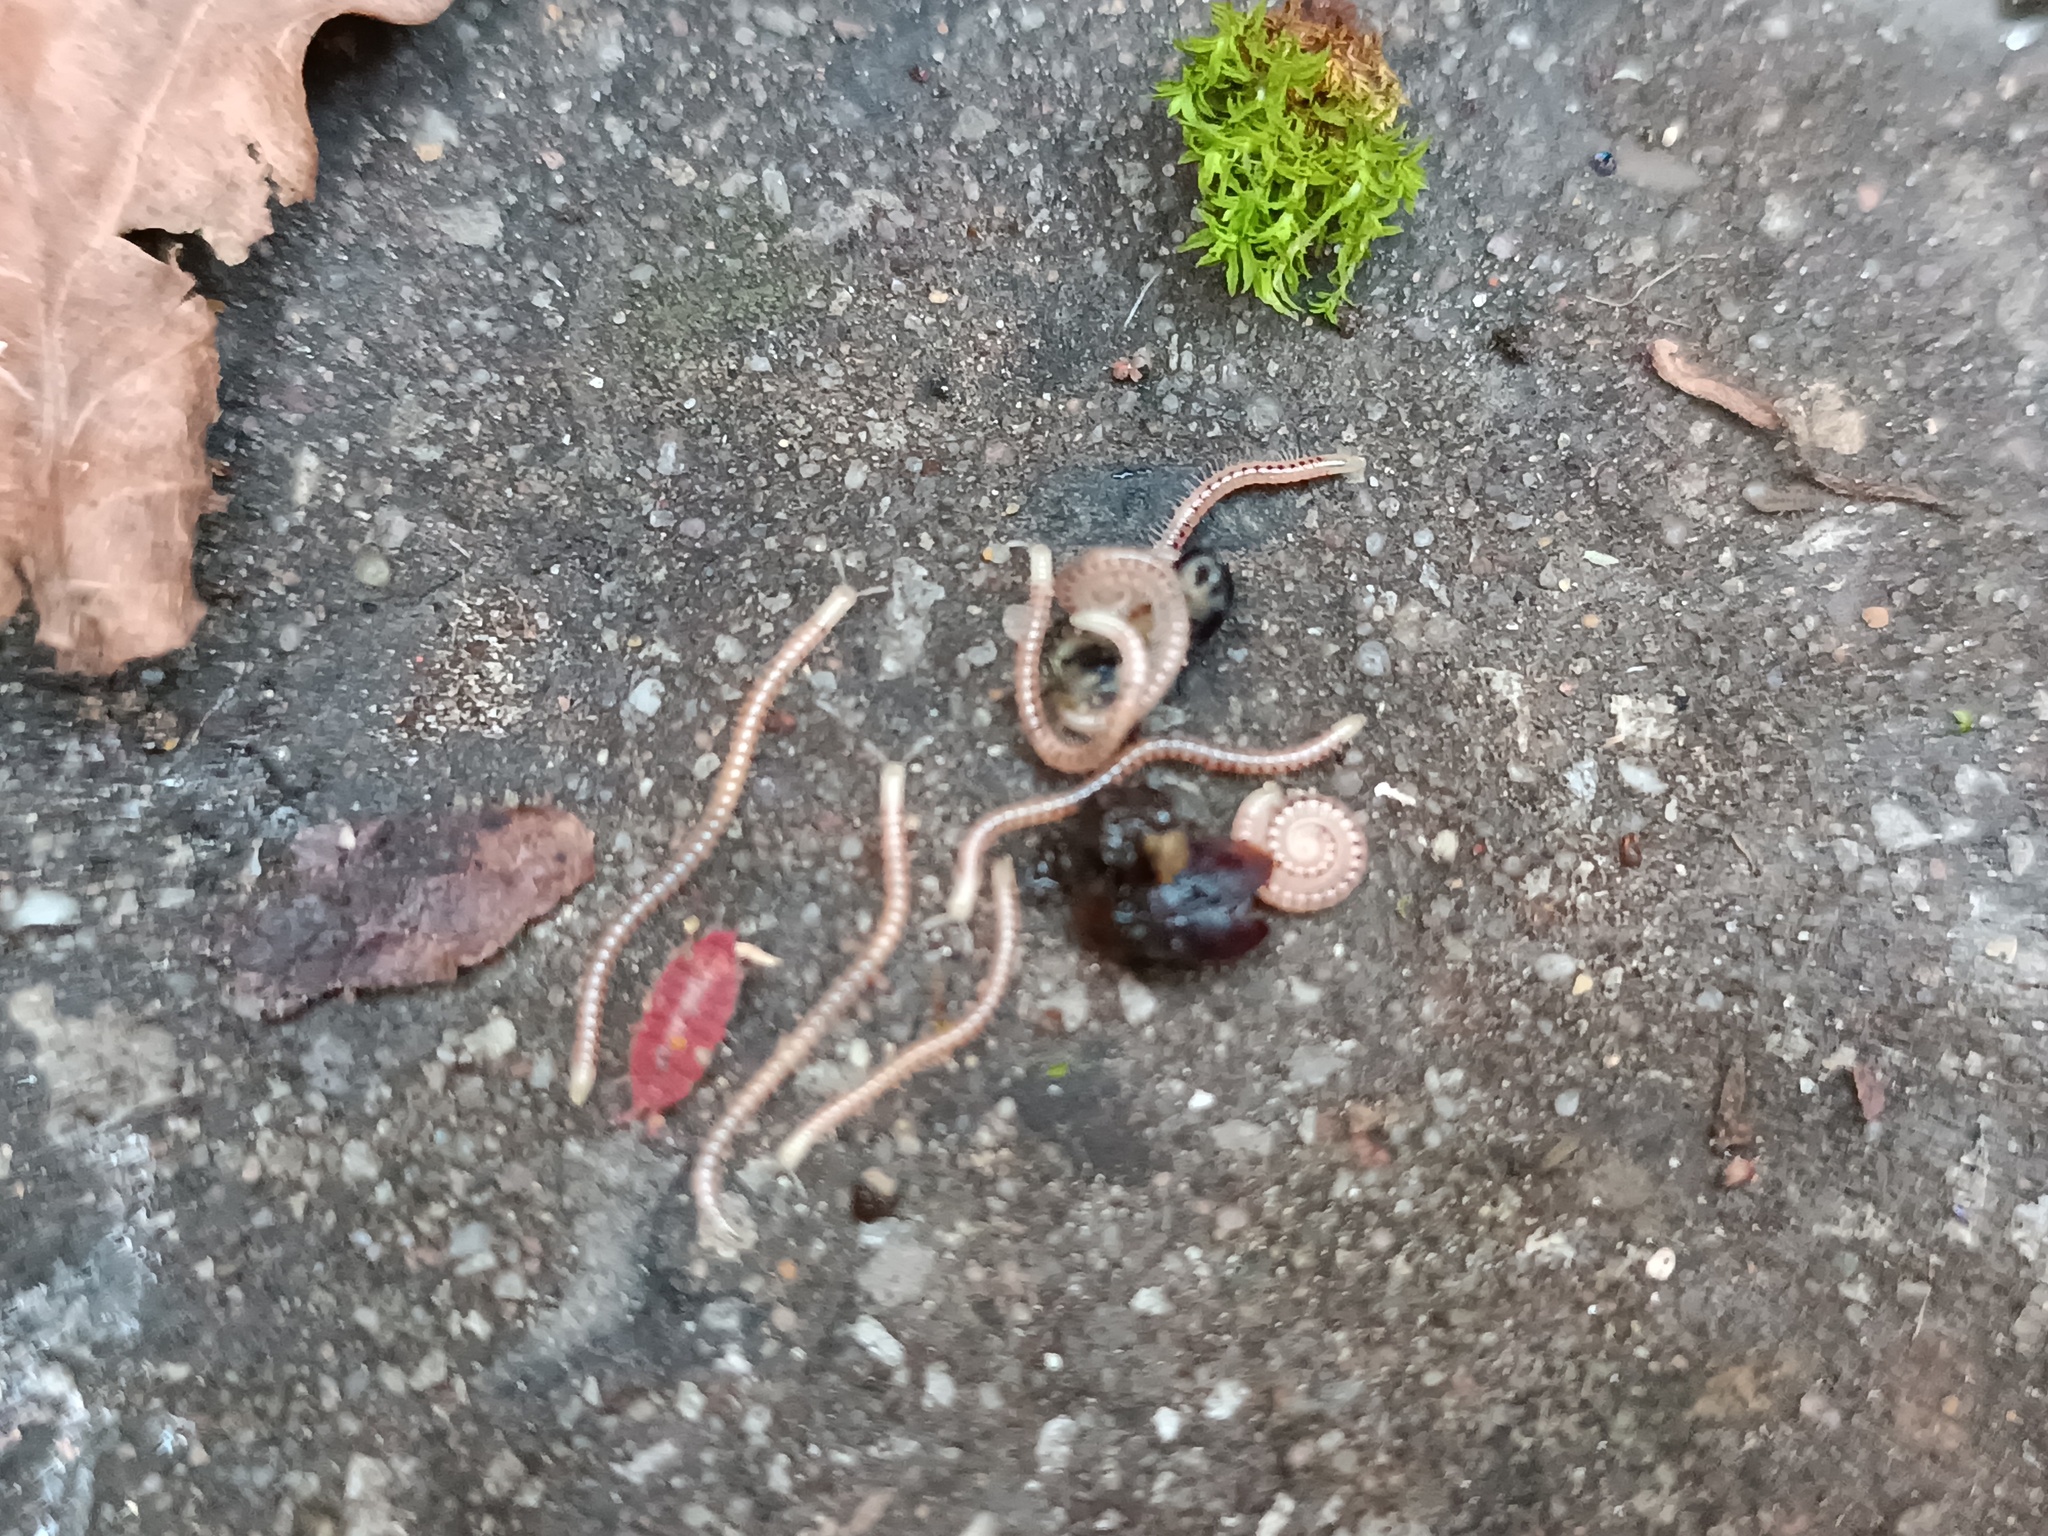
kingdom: Animalia
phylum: Arthropoda
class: Malacostraca
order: Isopoda
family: Trichoniscidae
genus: Androniscus
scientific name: Androniscus dentiger
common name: Rosy woodlouse
